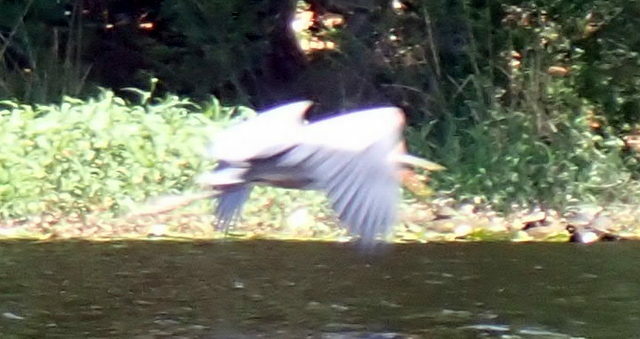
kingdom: Animalia
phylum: Chordata
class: Aves
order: Pelecaniformes
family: Ardeidae
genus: Ardea
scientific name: Ardea herodias
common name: Great blue heron
